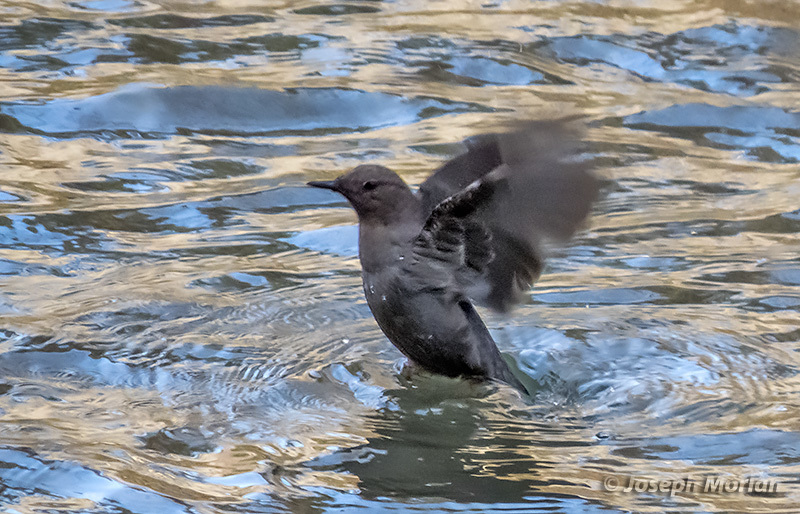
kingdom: Animalia
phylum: Chordata
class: Aves
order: Passeriformes
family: Cinclidae
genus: Cinclus
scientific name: Cinclus mexicanus
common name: American dipper
